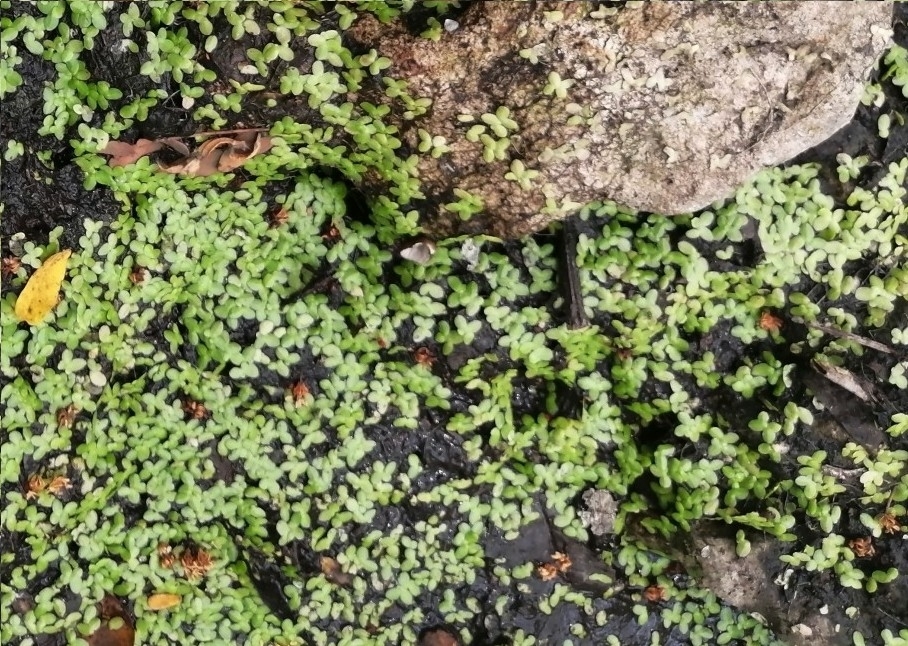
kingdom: Plantae
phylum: Tracheophyta
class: Liliopsida
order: Alismatales
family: Araceae
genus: Lemna
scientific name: Lemna minor
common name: Common duckweed
